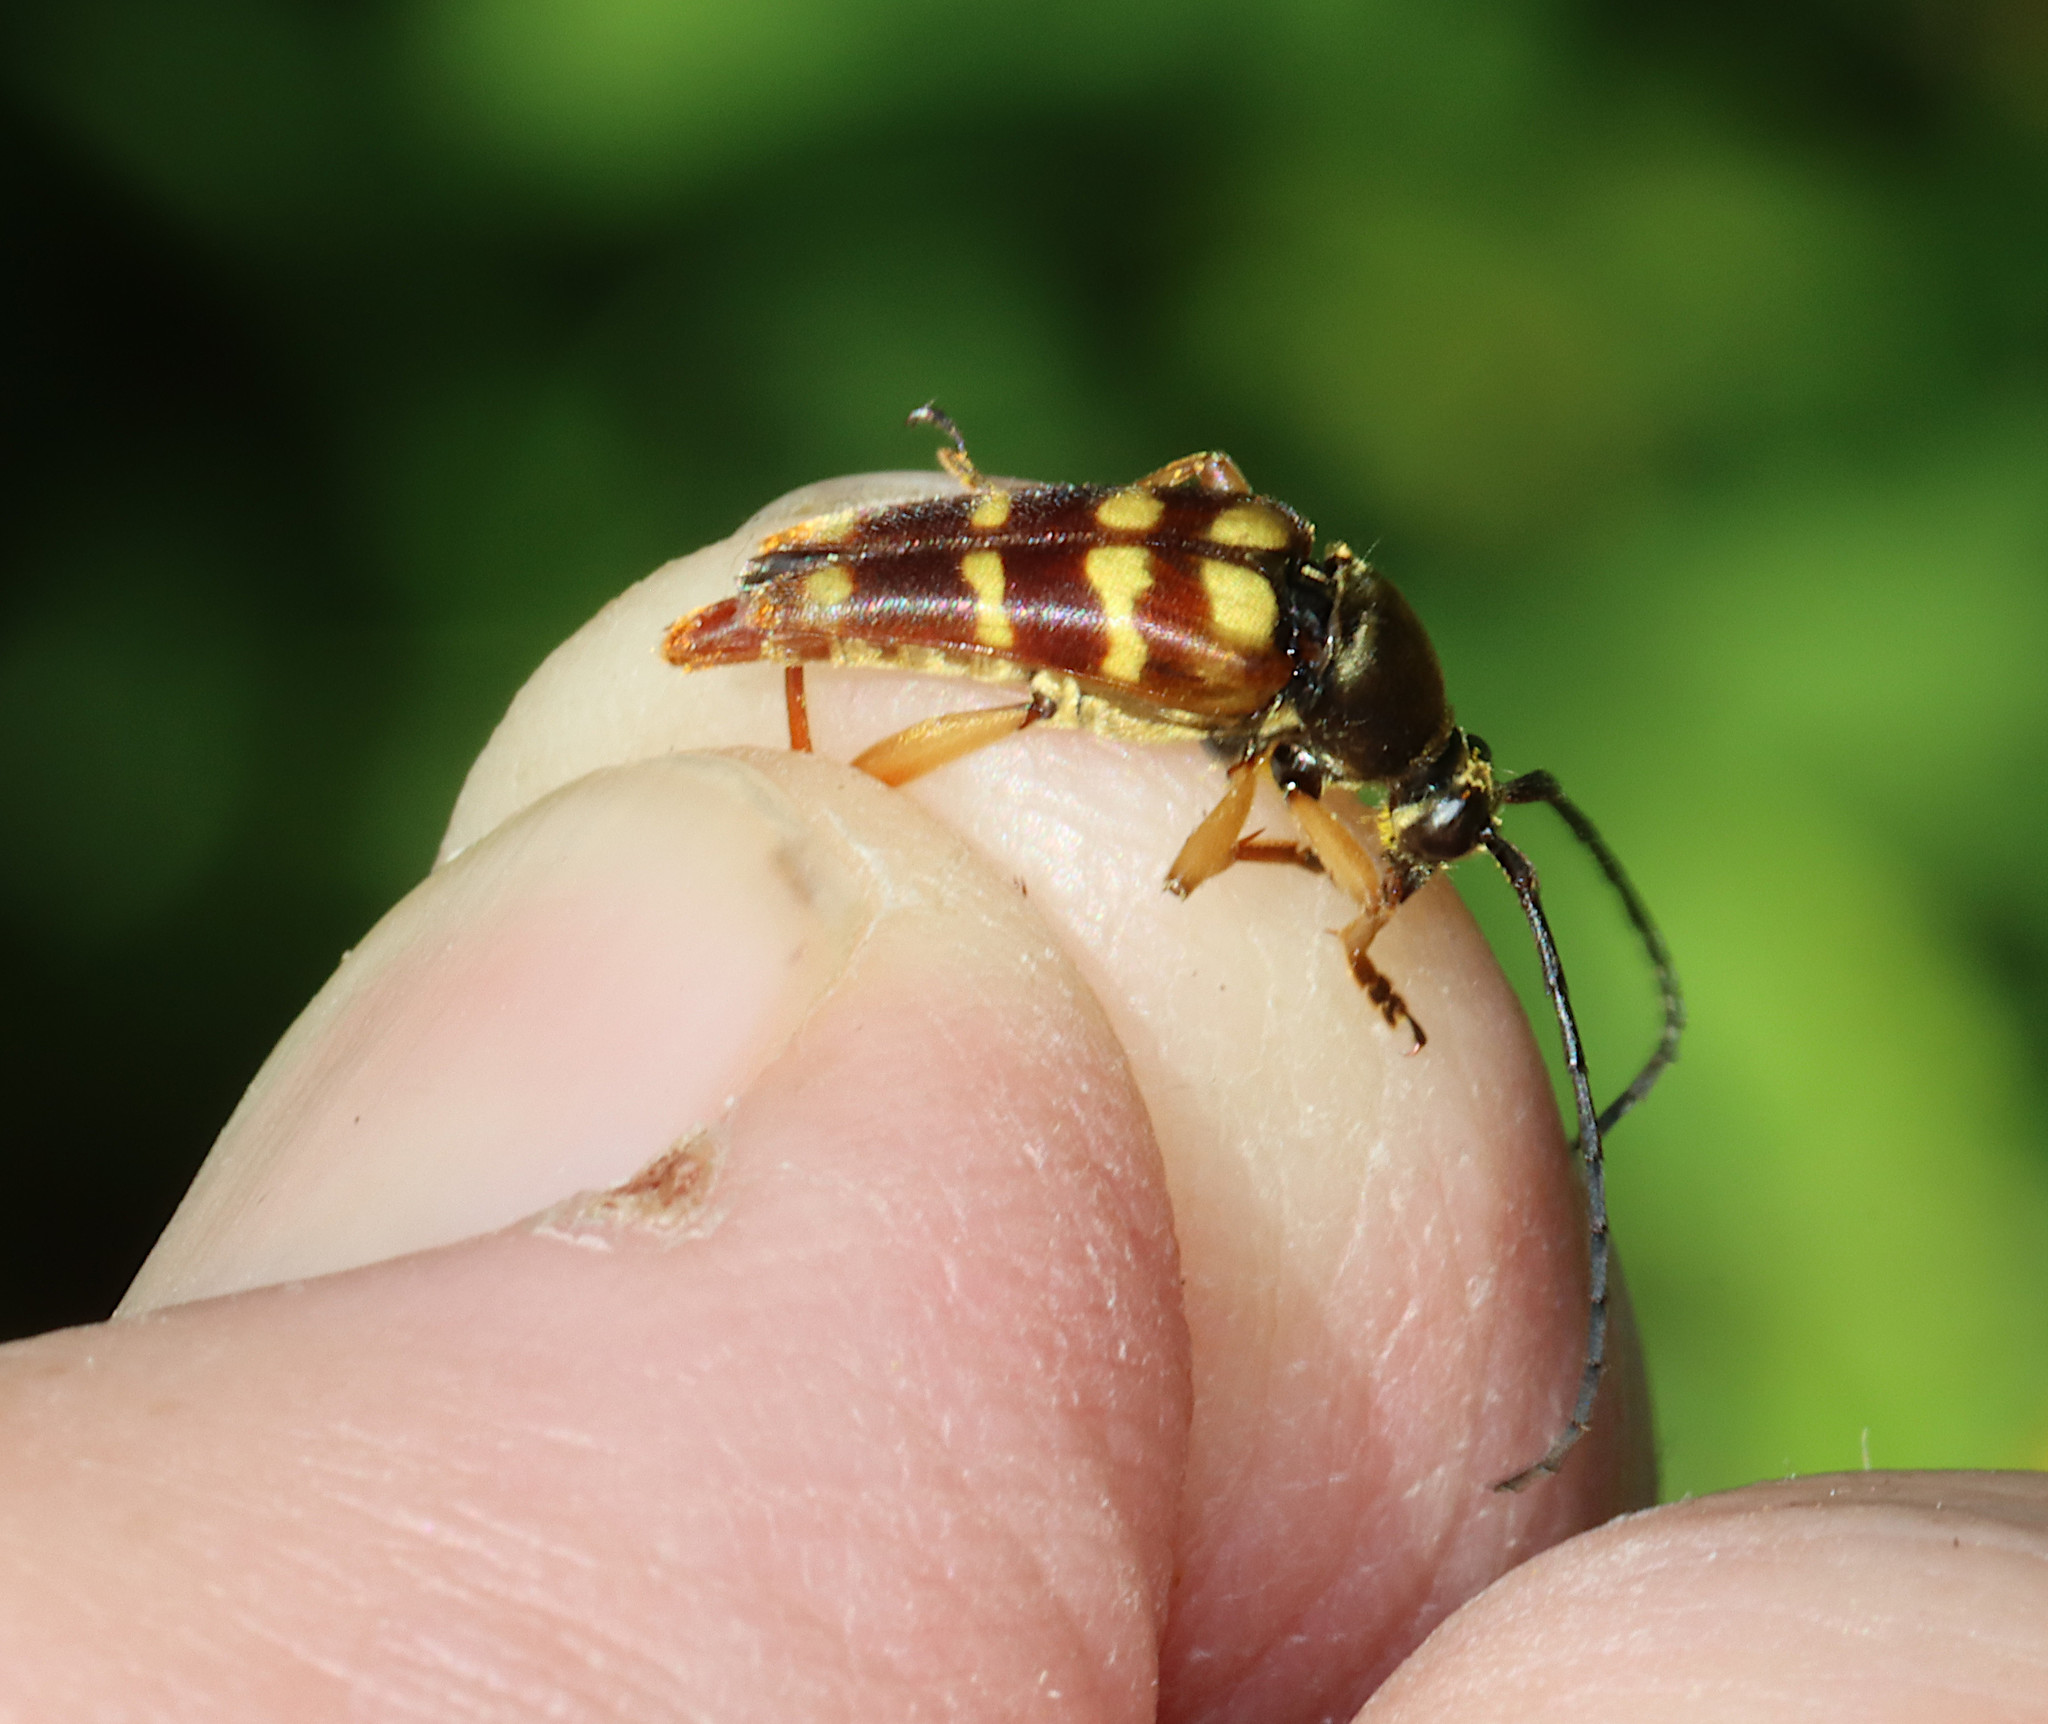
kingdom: Animalia
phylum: Arthropoda
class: Insecta
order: Coleoptera
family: Cerambycidae
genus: Typocerus
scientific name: Typocerus velutinus
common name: Banded longhorn beetle
